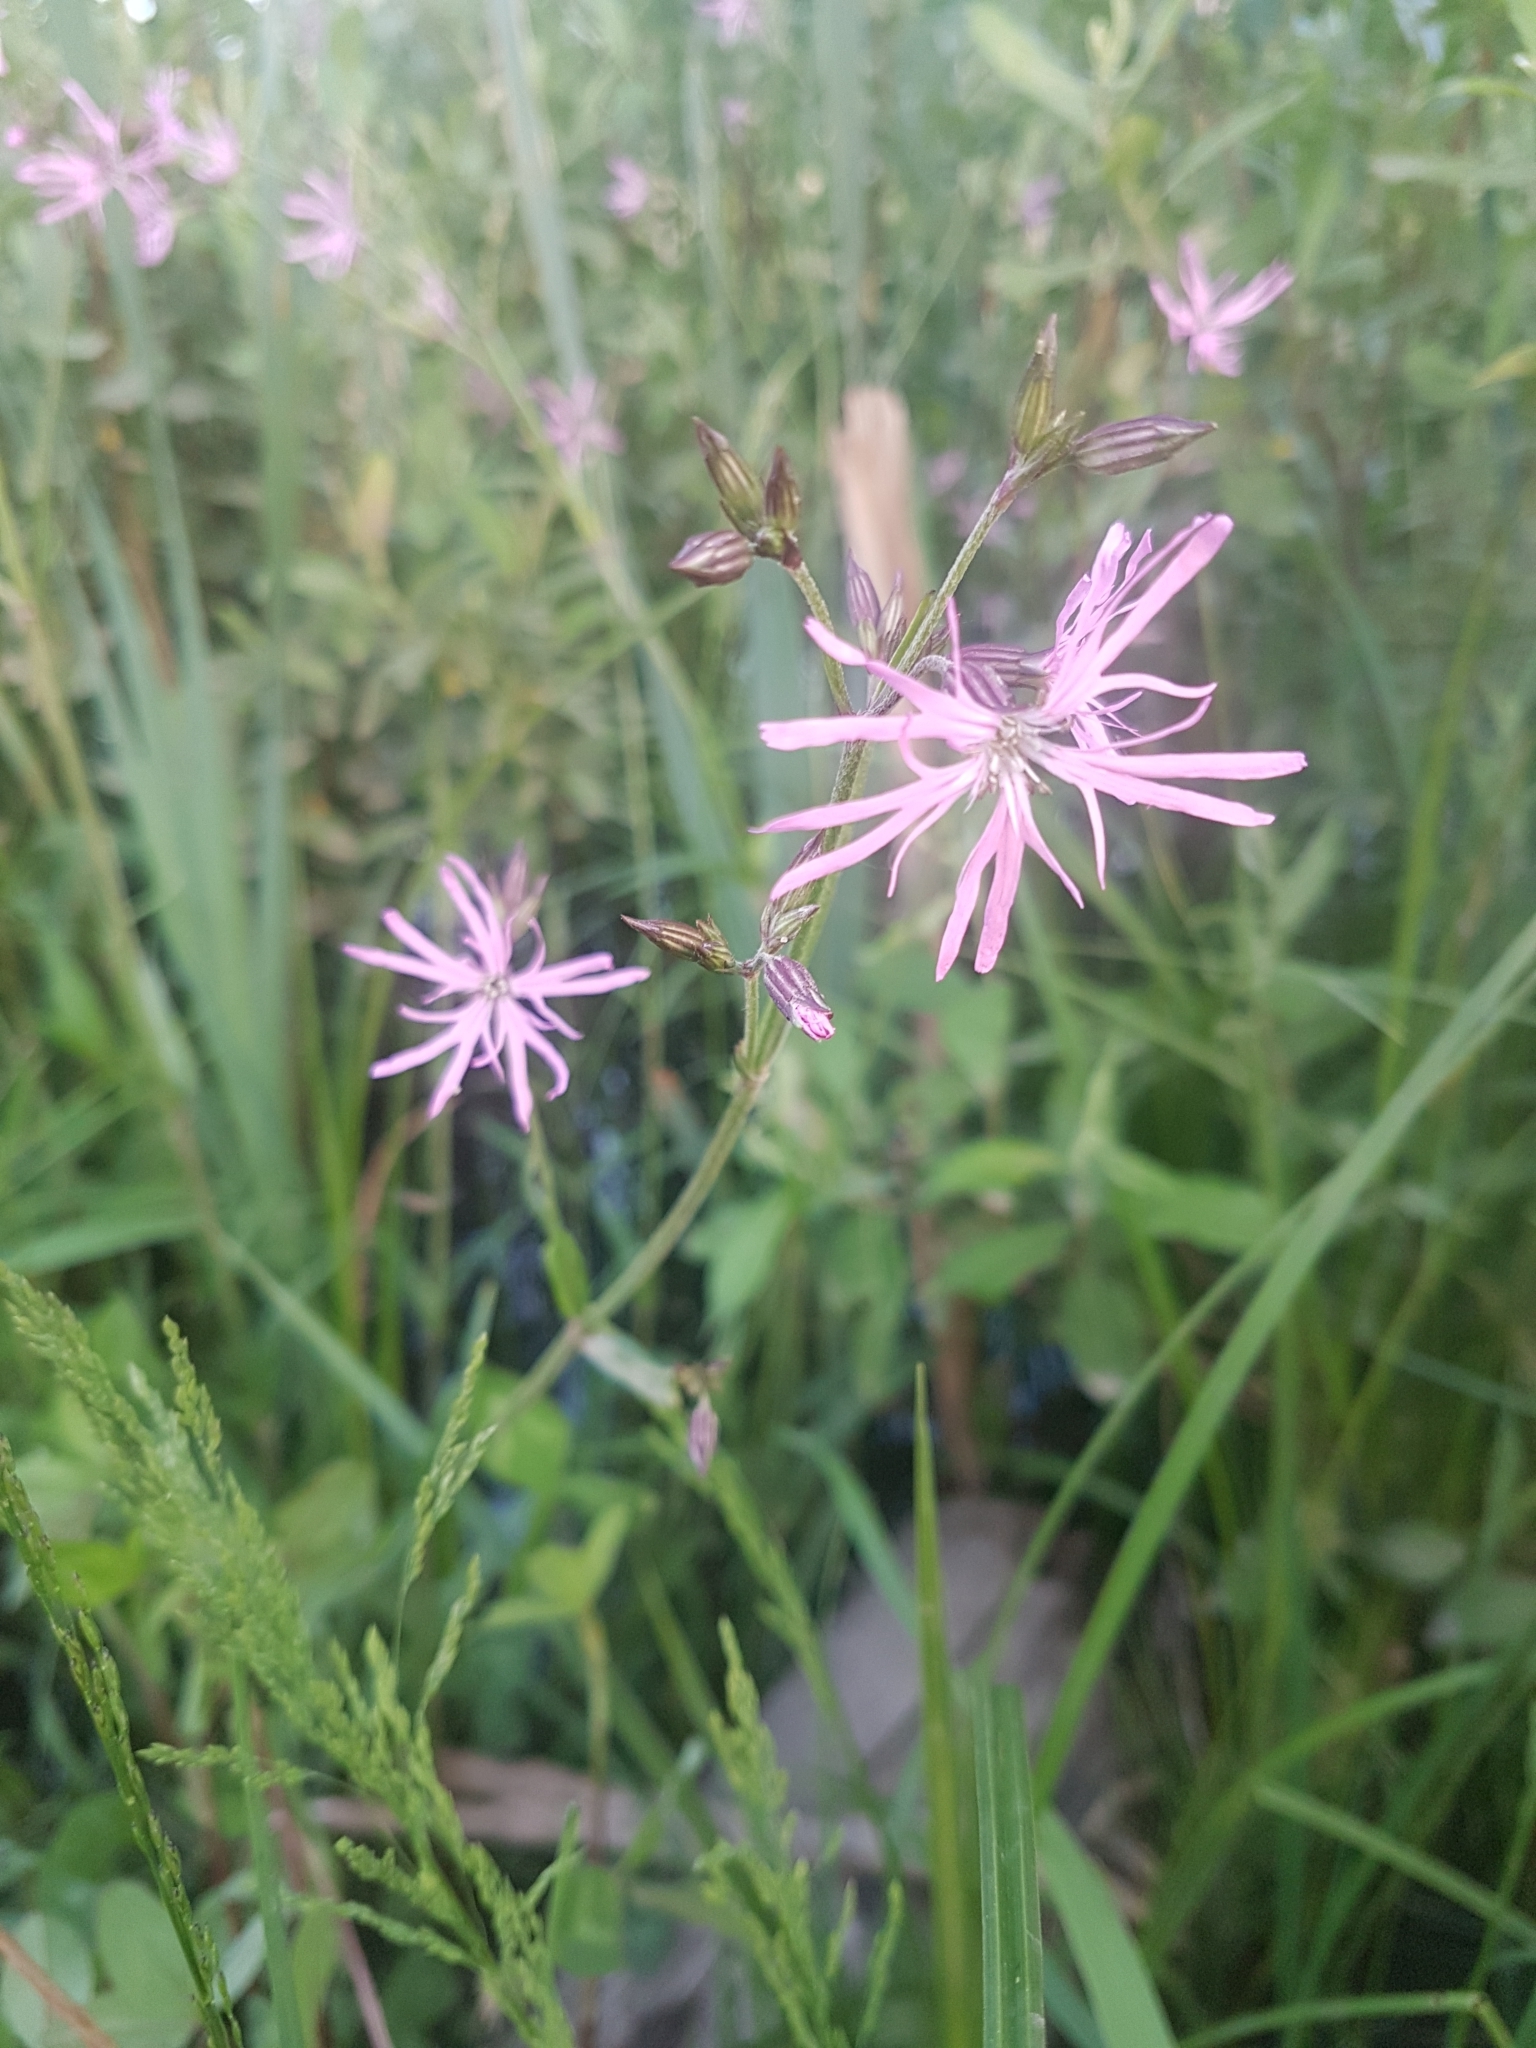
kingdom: Plantae
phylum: Tracheophyta
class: Magnoliopsida
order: Caryophyllales
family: Caryophyllaceae
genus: Silene
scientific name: Silene flos-cuculi
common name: Ragged-robin
